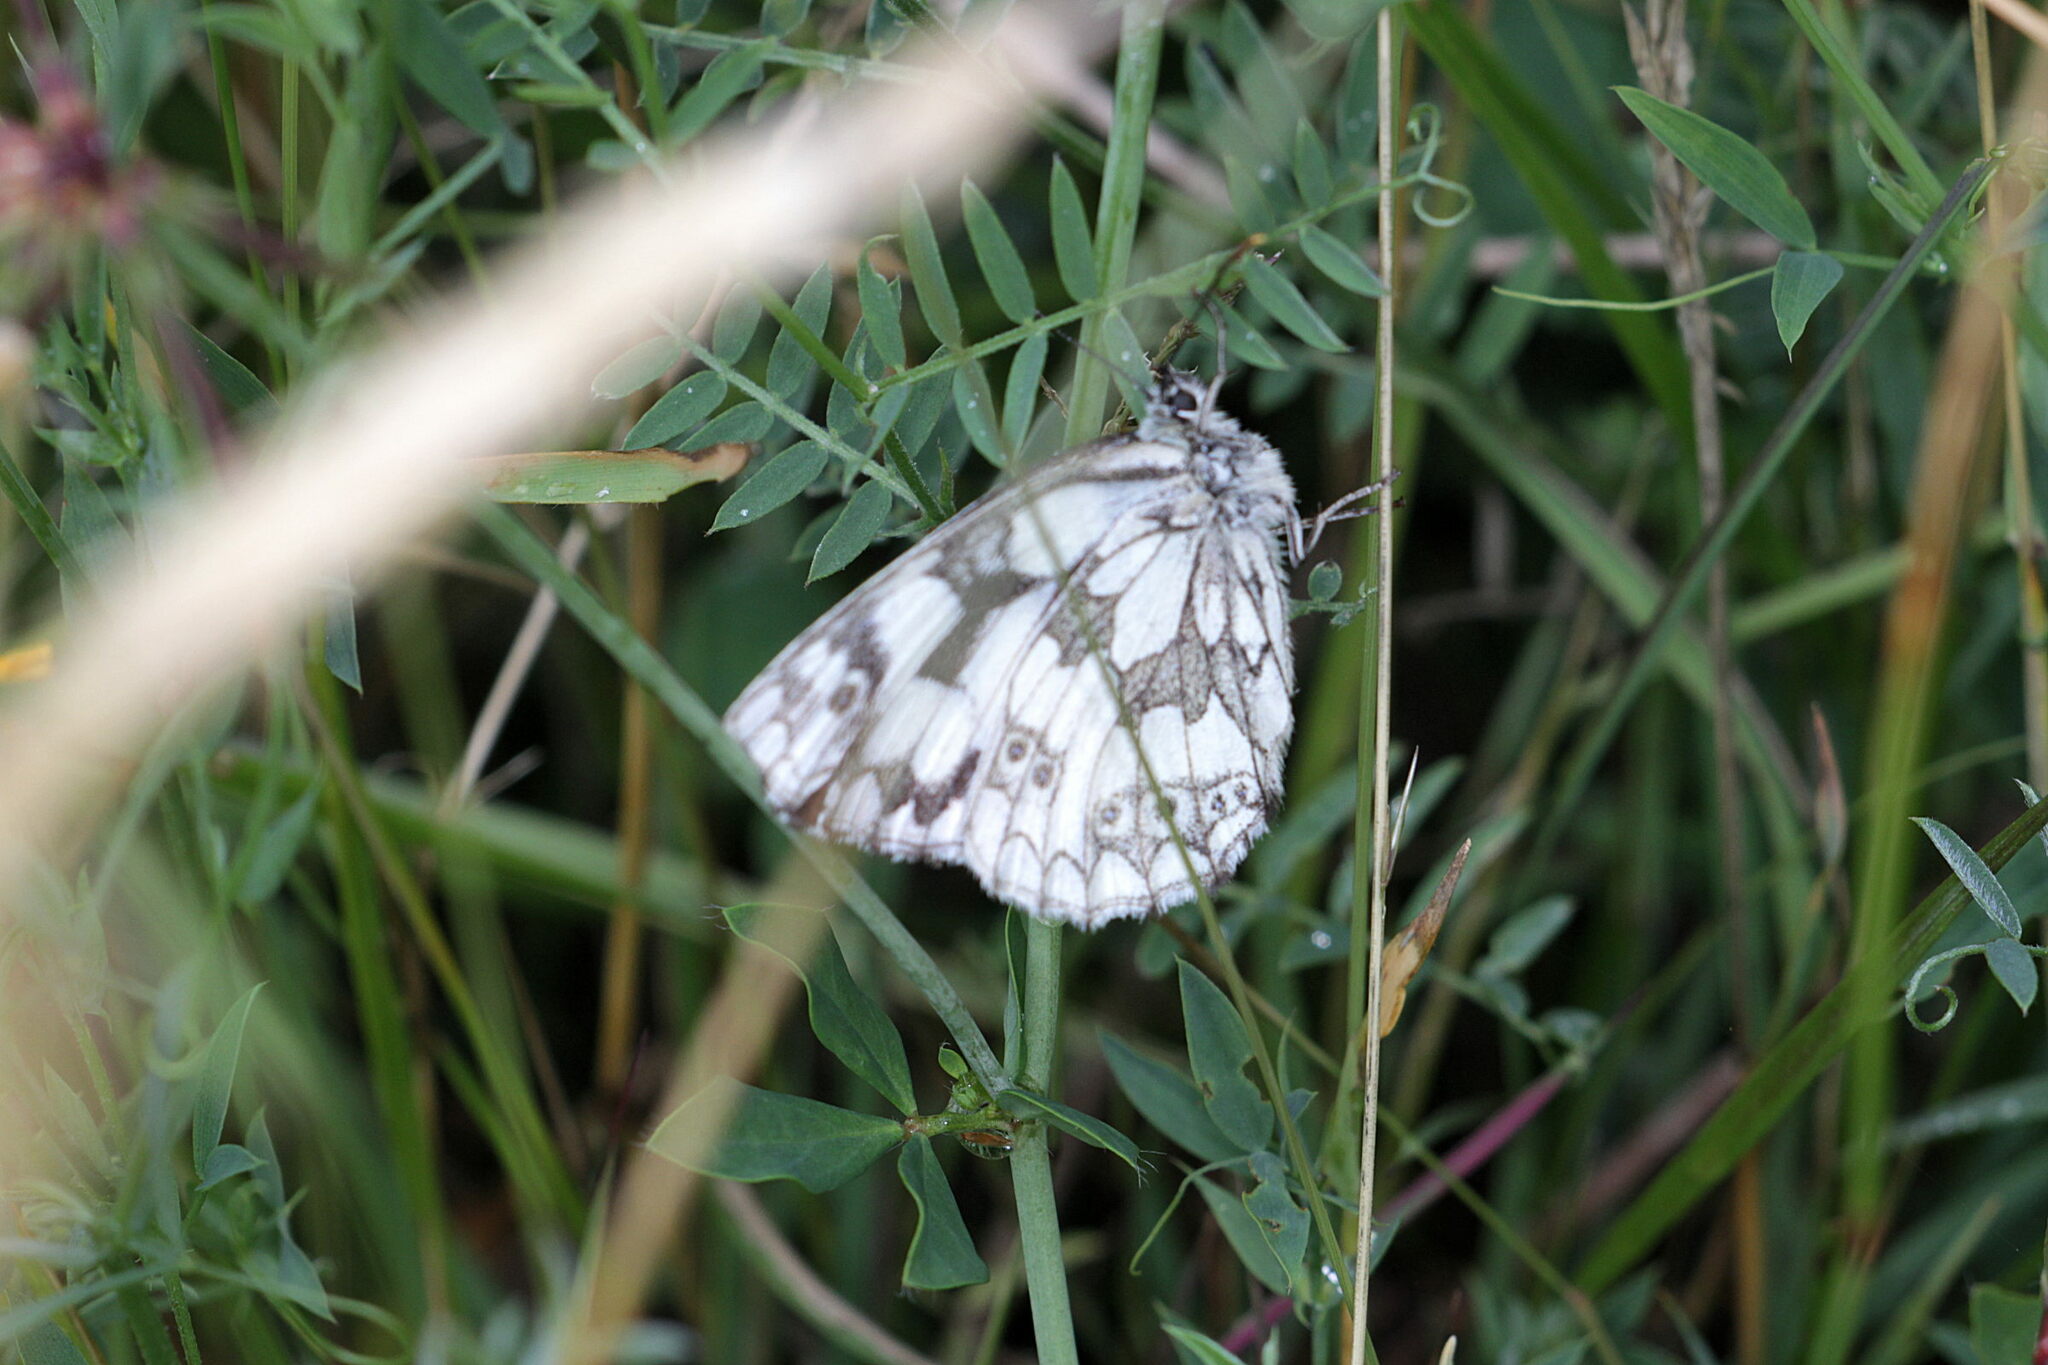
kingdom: Animalia
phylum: Arthropoda
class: Insecta
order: Lepidoptera
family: Nymphalidae
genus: Melanargia
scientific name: Melanargia galathea
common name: Marbled white
